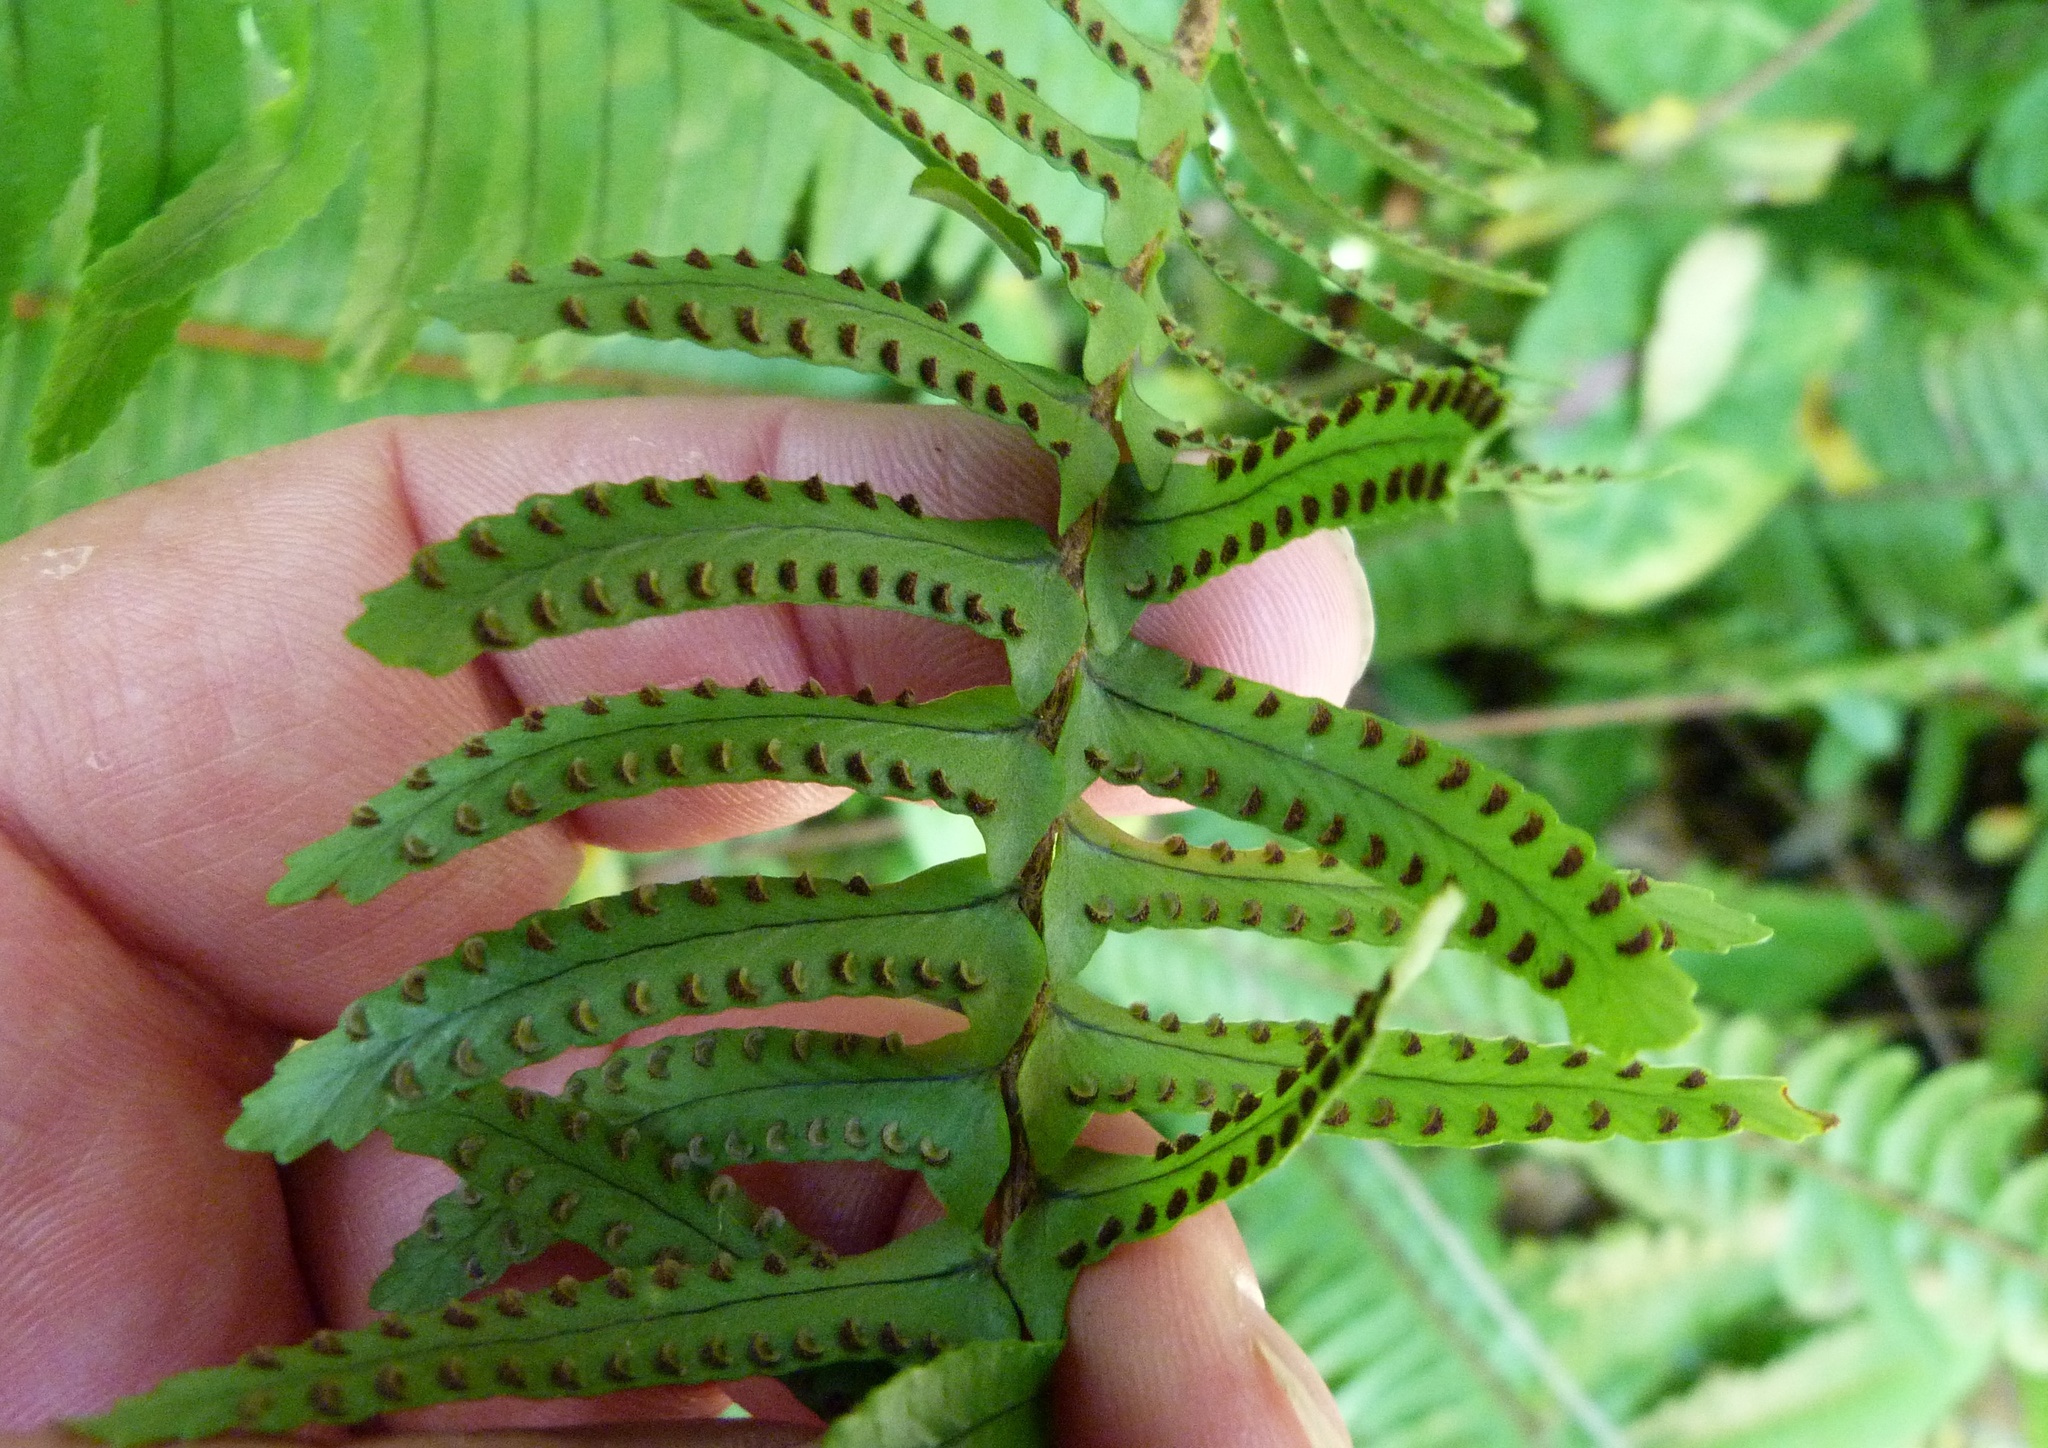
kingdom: Plantae
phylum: Tracheophyta
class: Polypodiopsida
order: Polypodiales
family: Nephrolepidaceae
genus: Nephrolepis
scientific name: Nephrolepis cordifolia
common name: Narrow swordfern
